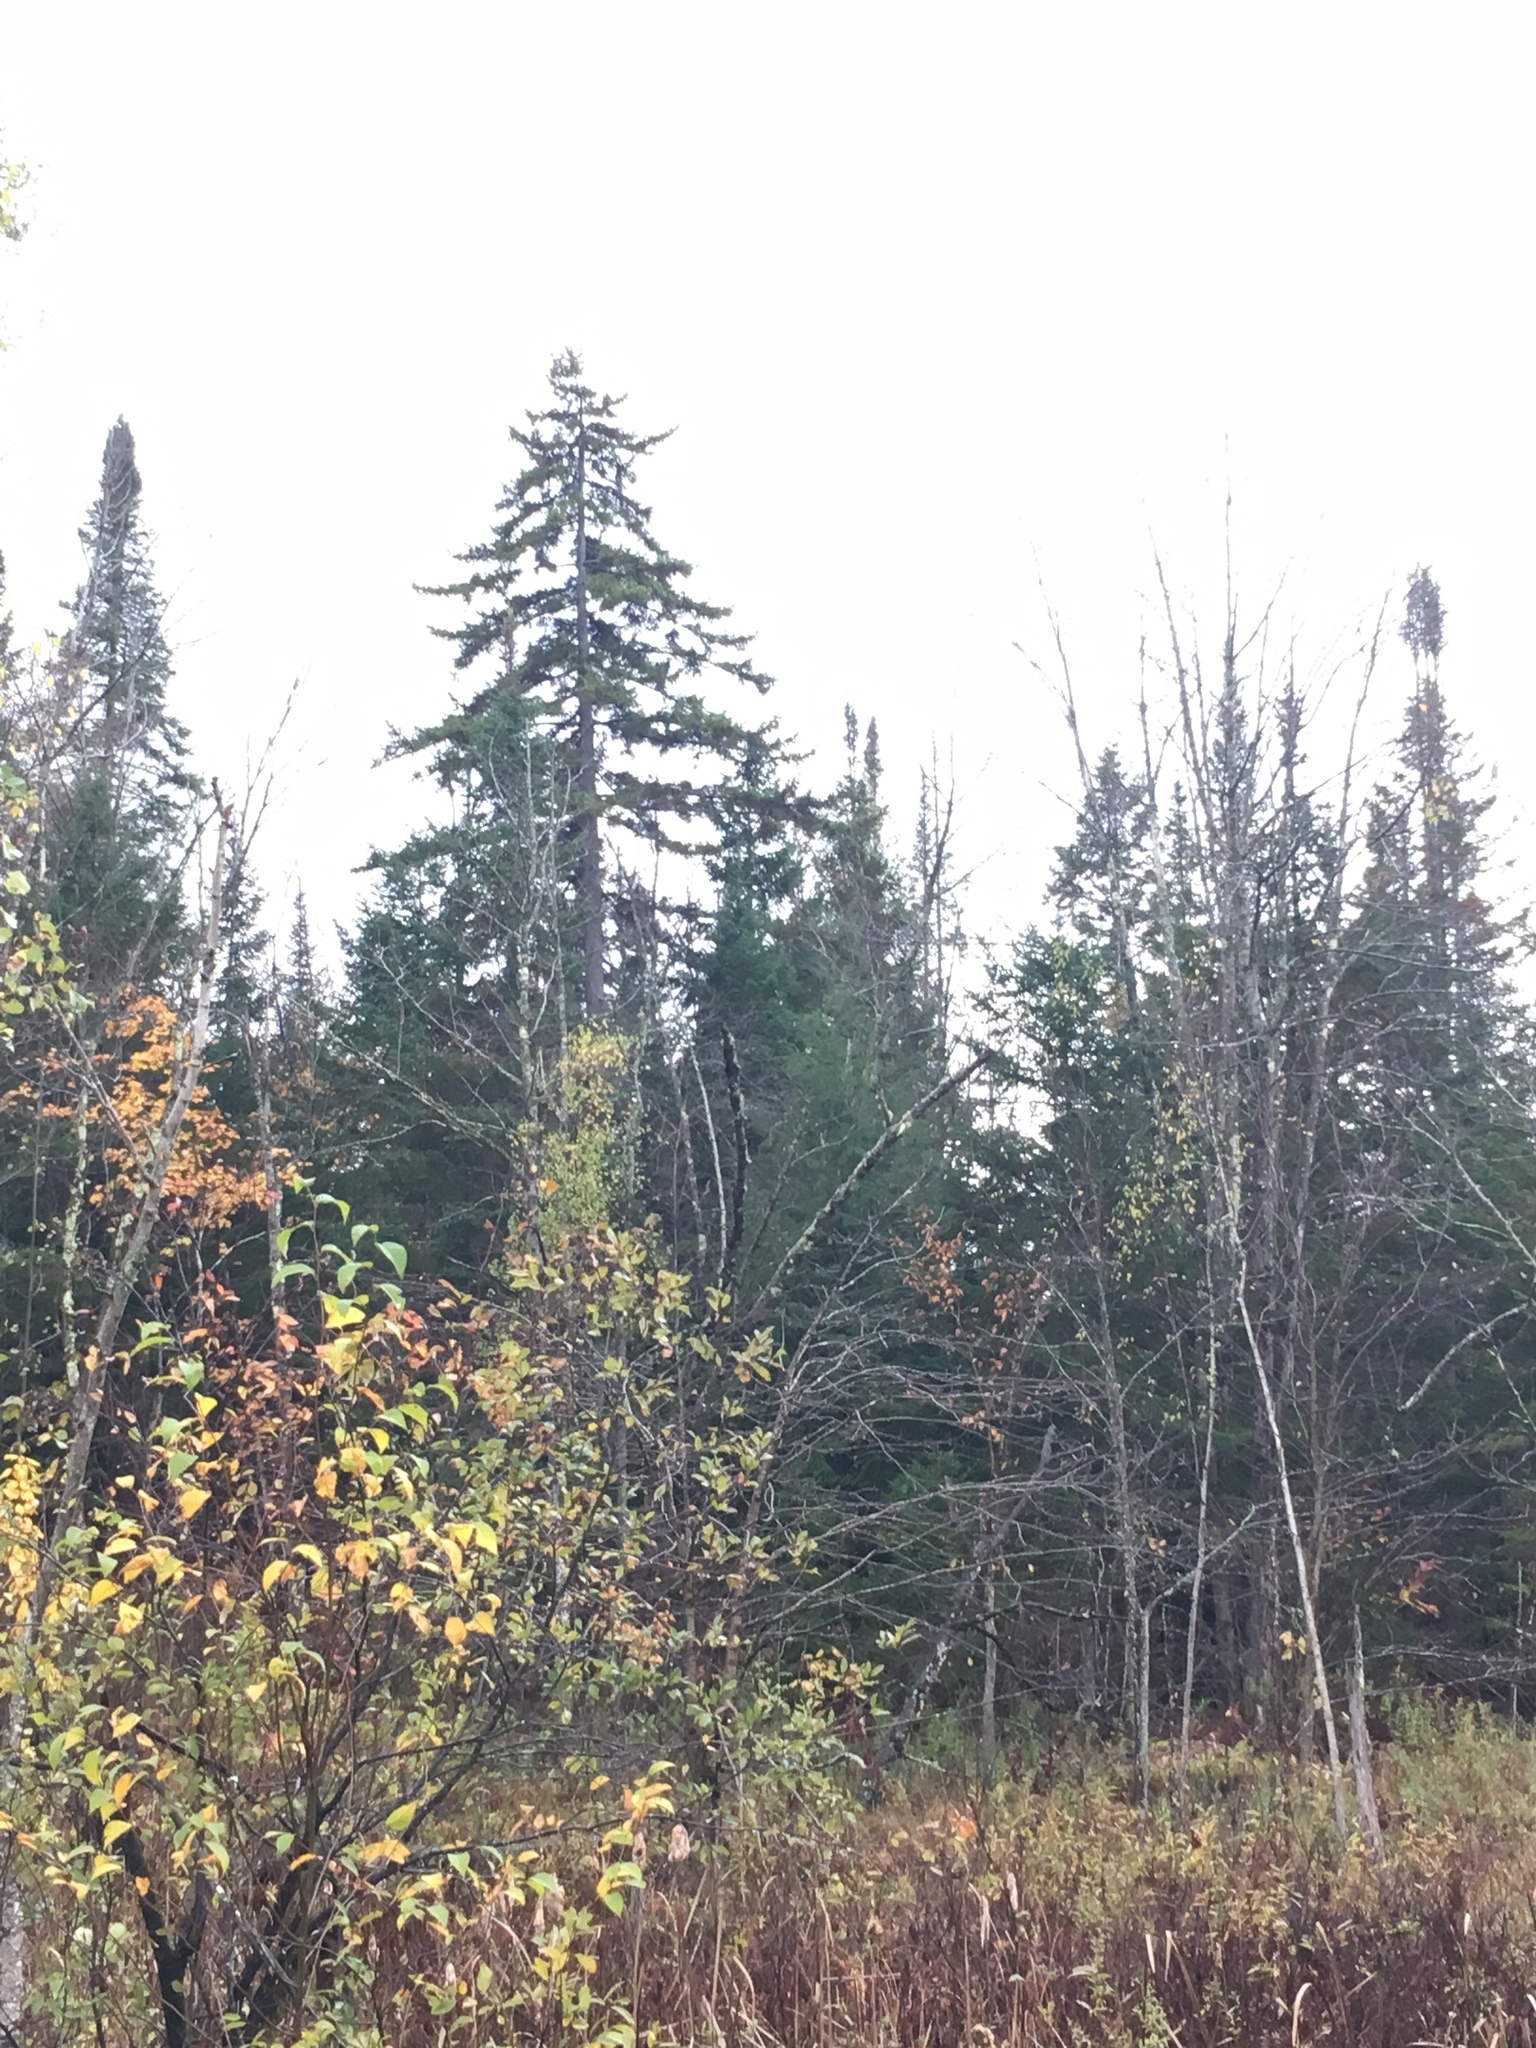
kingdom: Plantae
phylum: Tracheophyta
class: Pinopsida
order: Pinales
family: Pinaceae
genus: Picea
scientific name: Picea rubens
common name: Red spruce
